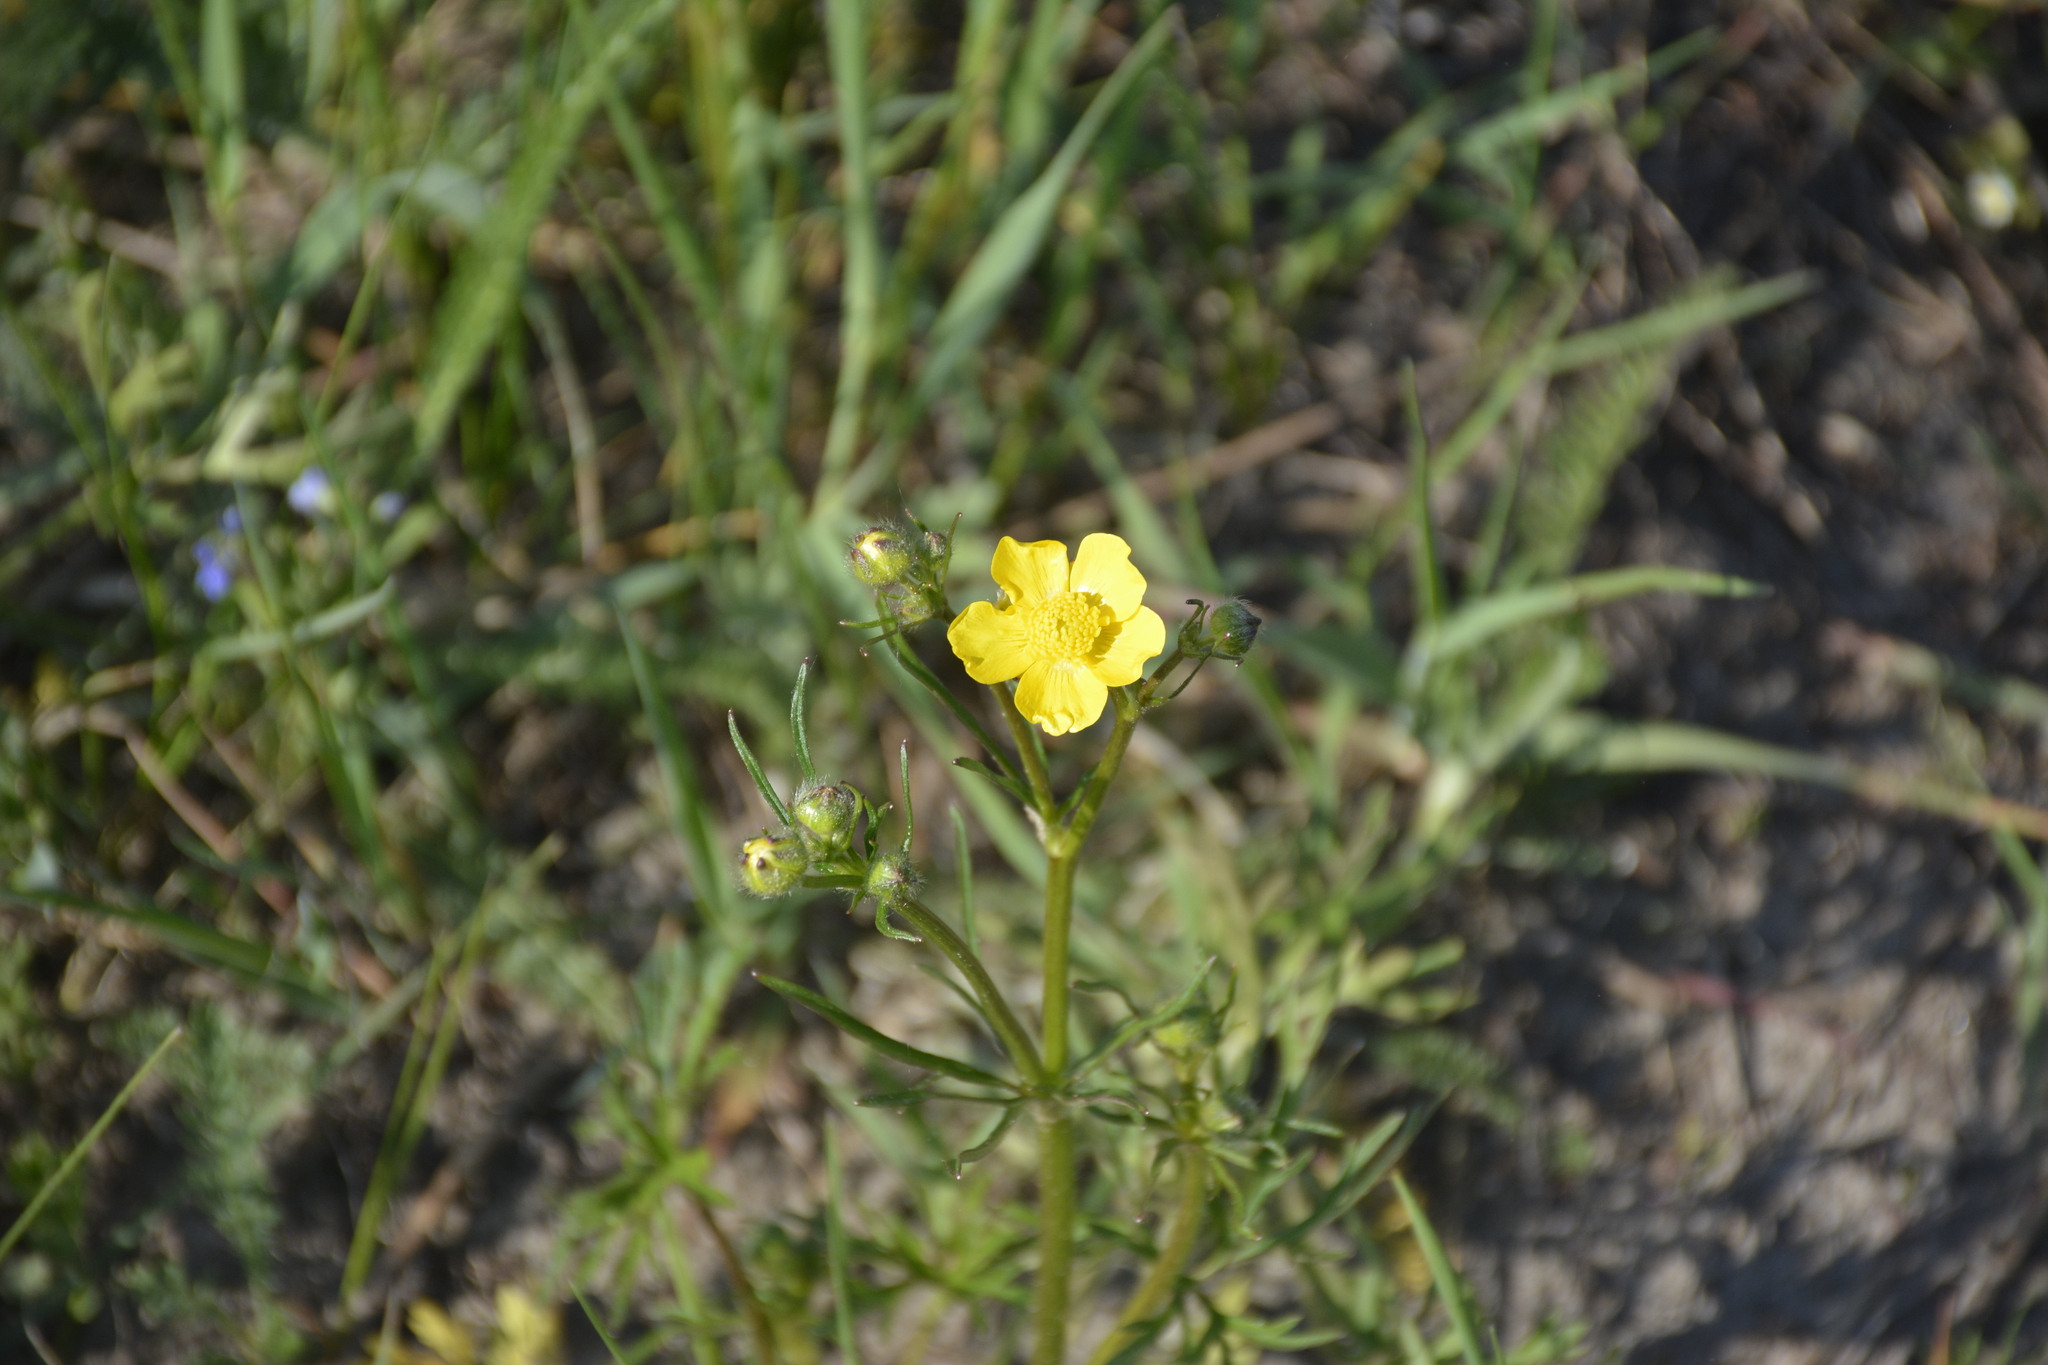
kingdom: Plantae
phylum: Tracheophyta
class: Magnoliopsida
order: Ranunculales
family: Ranunculaceae
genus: Ranunculus
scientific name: Ranunculus polyanthemos
